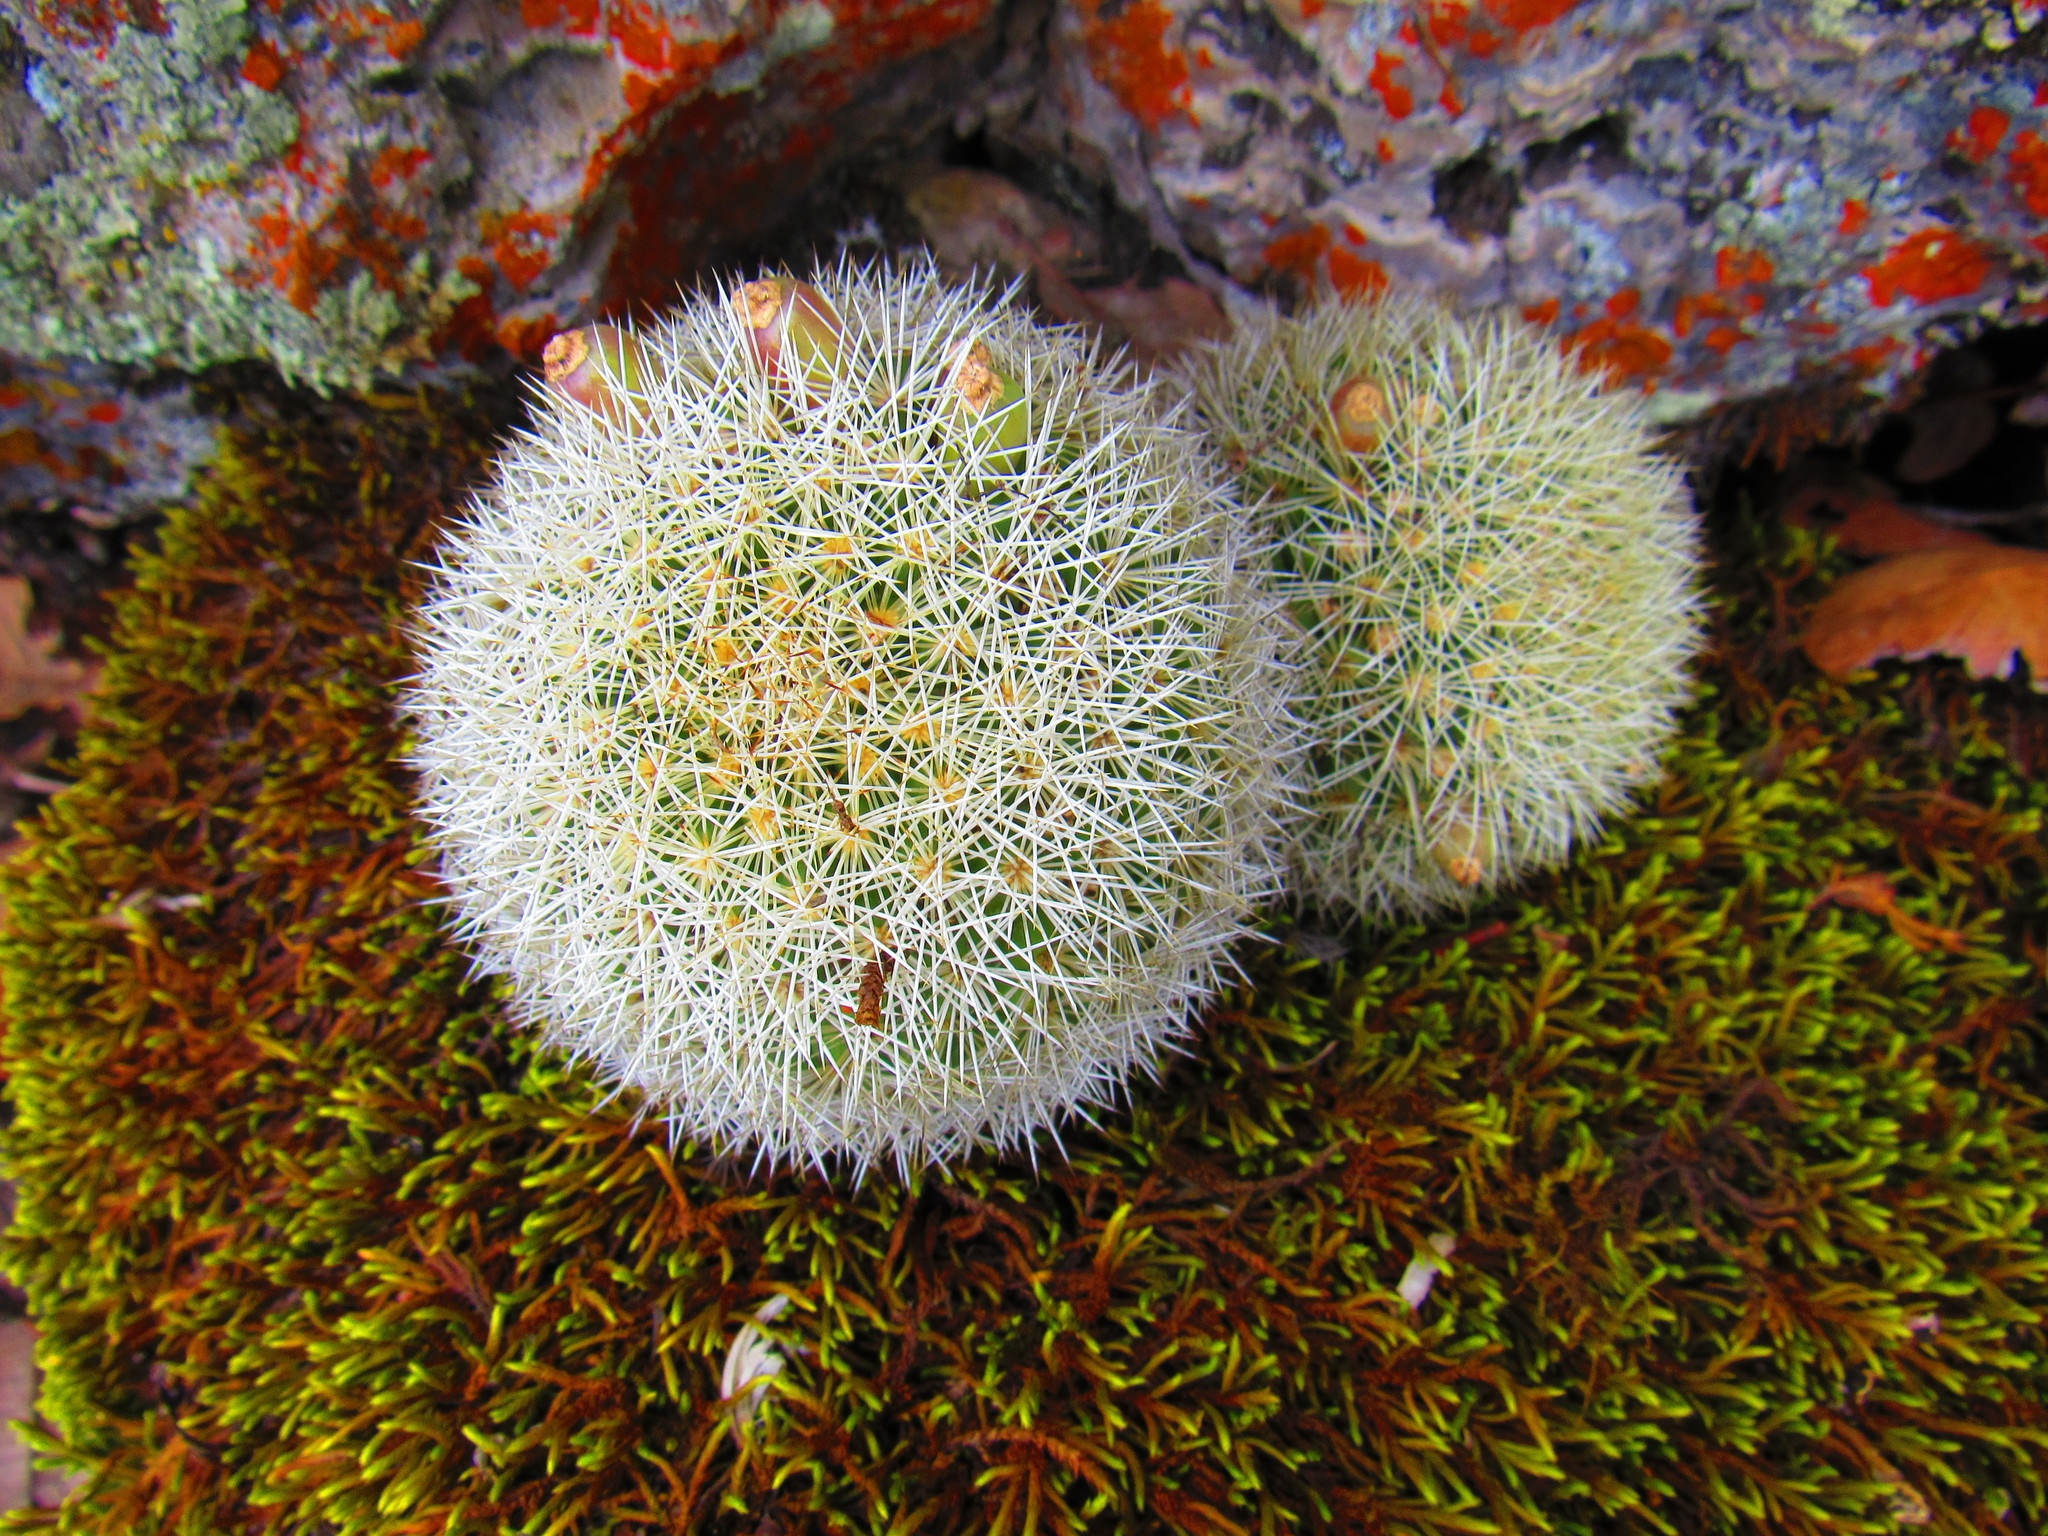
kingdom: Plantae
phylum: Tracheophyta
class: Magnoliopsida
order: Caryophyllales
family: Cactaceae
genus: Mammillaria
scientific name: Mammillaria densispina
